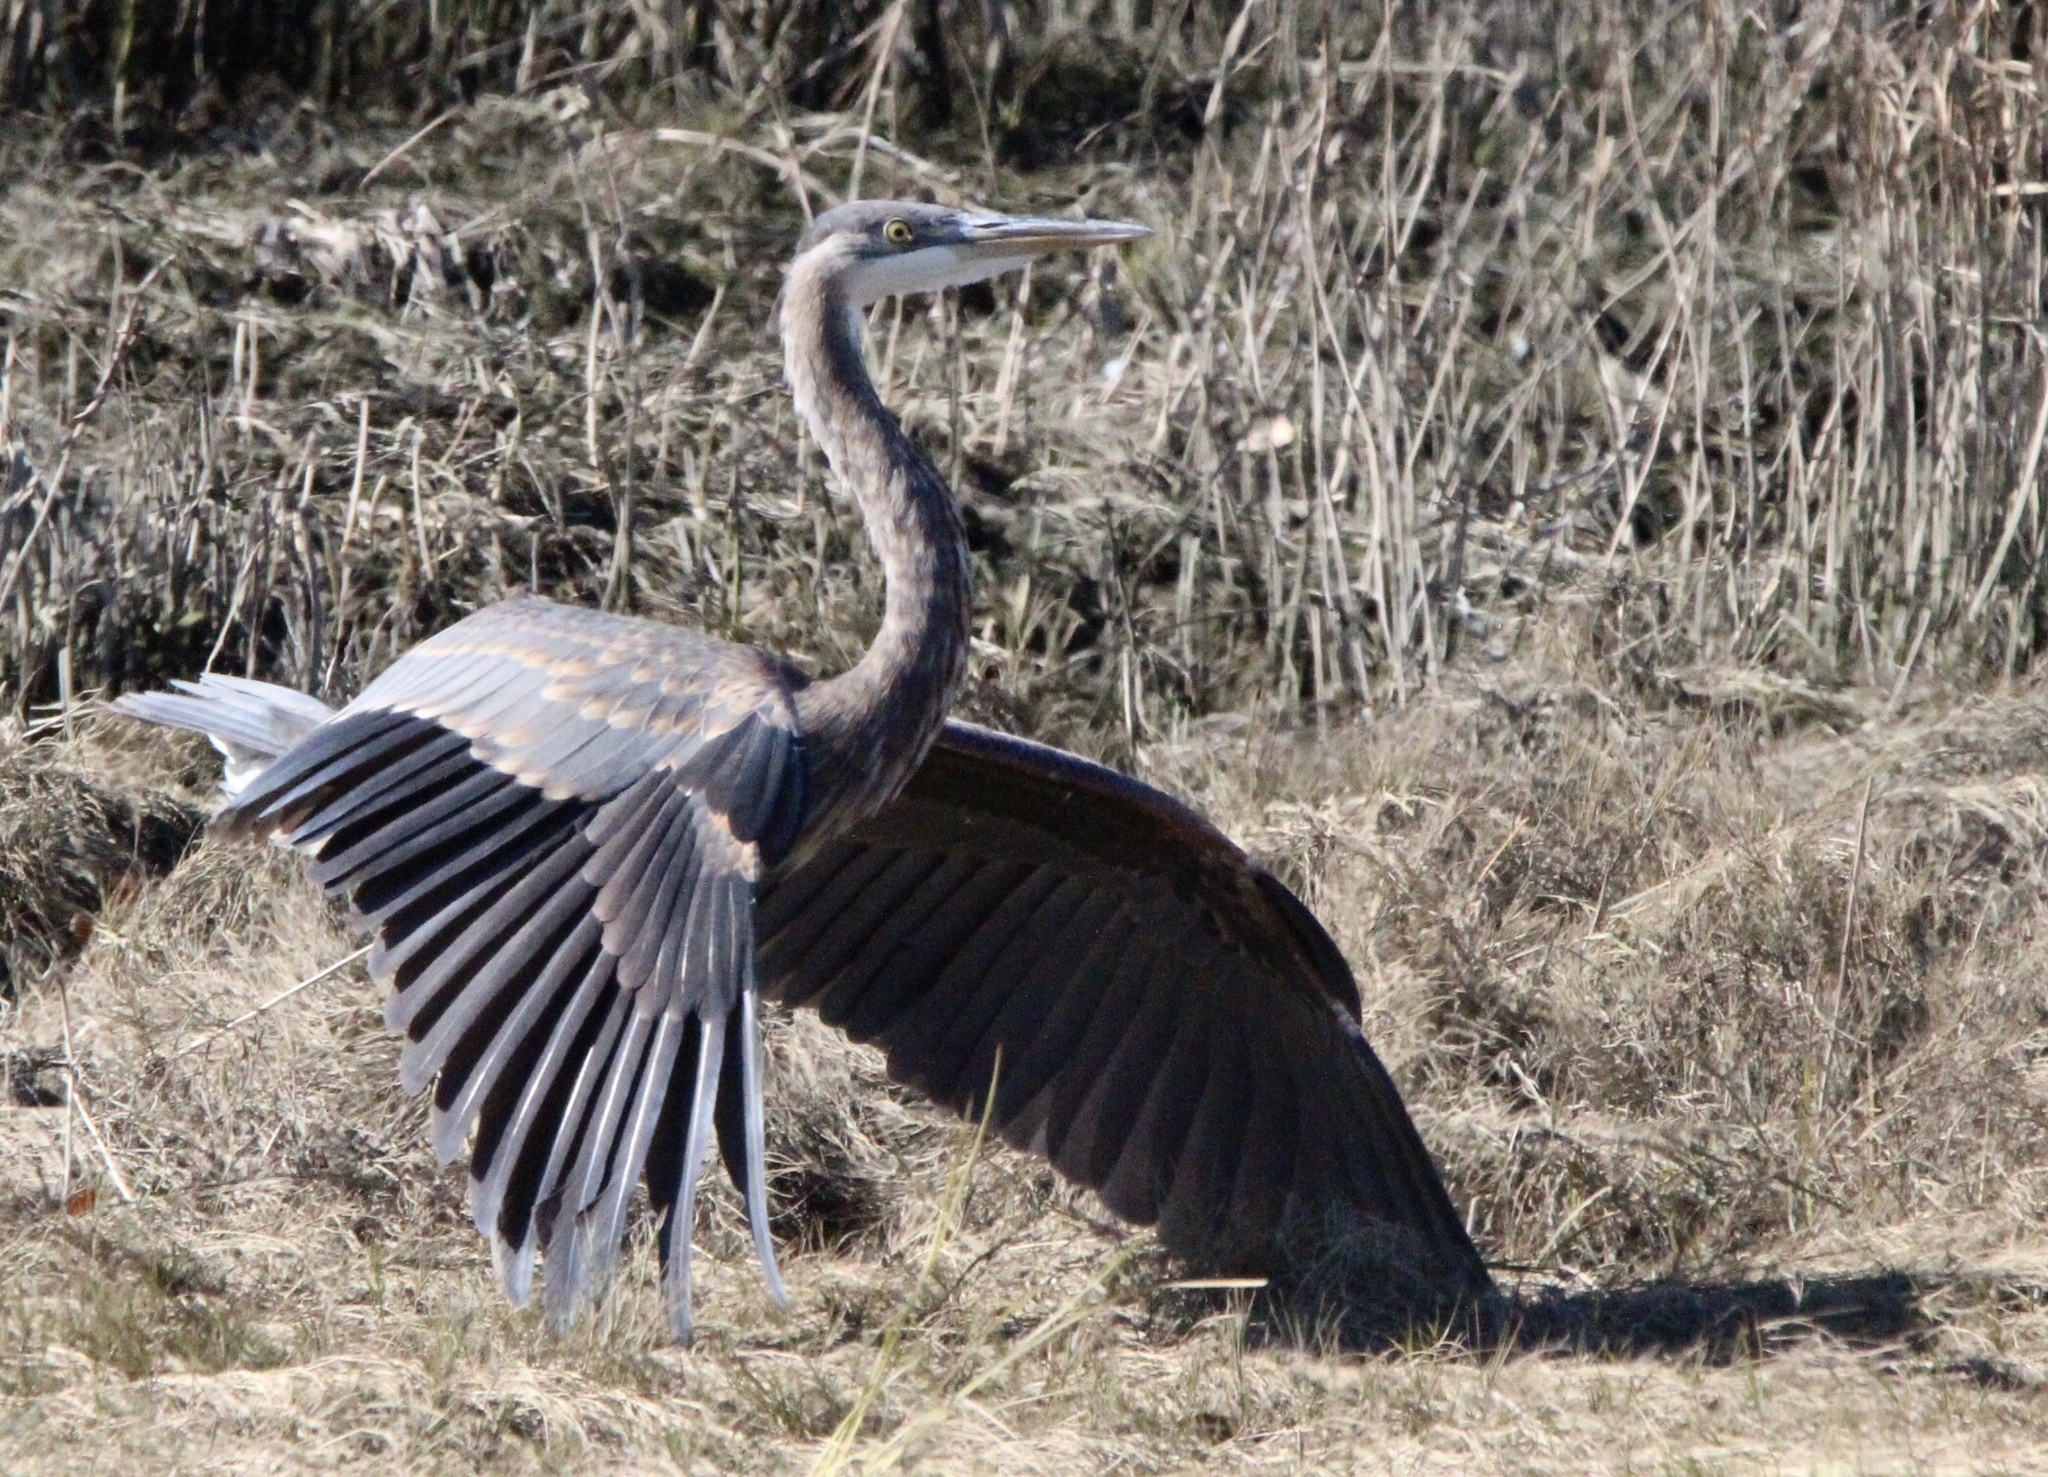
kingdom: Animalia
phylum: Chordata
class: Aves
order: Pelecaniformes
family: Ardeidae
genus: Ardea
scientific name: Ardea herodias
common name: Great blue heron
